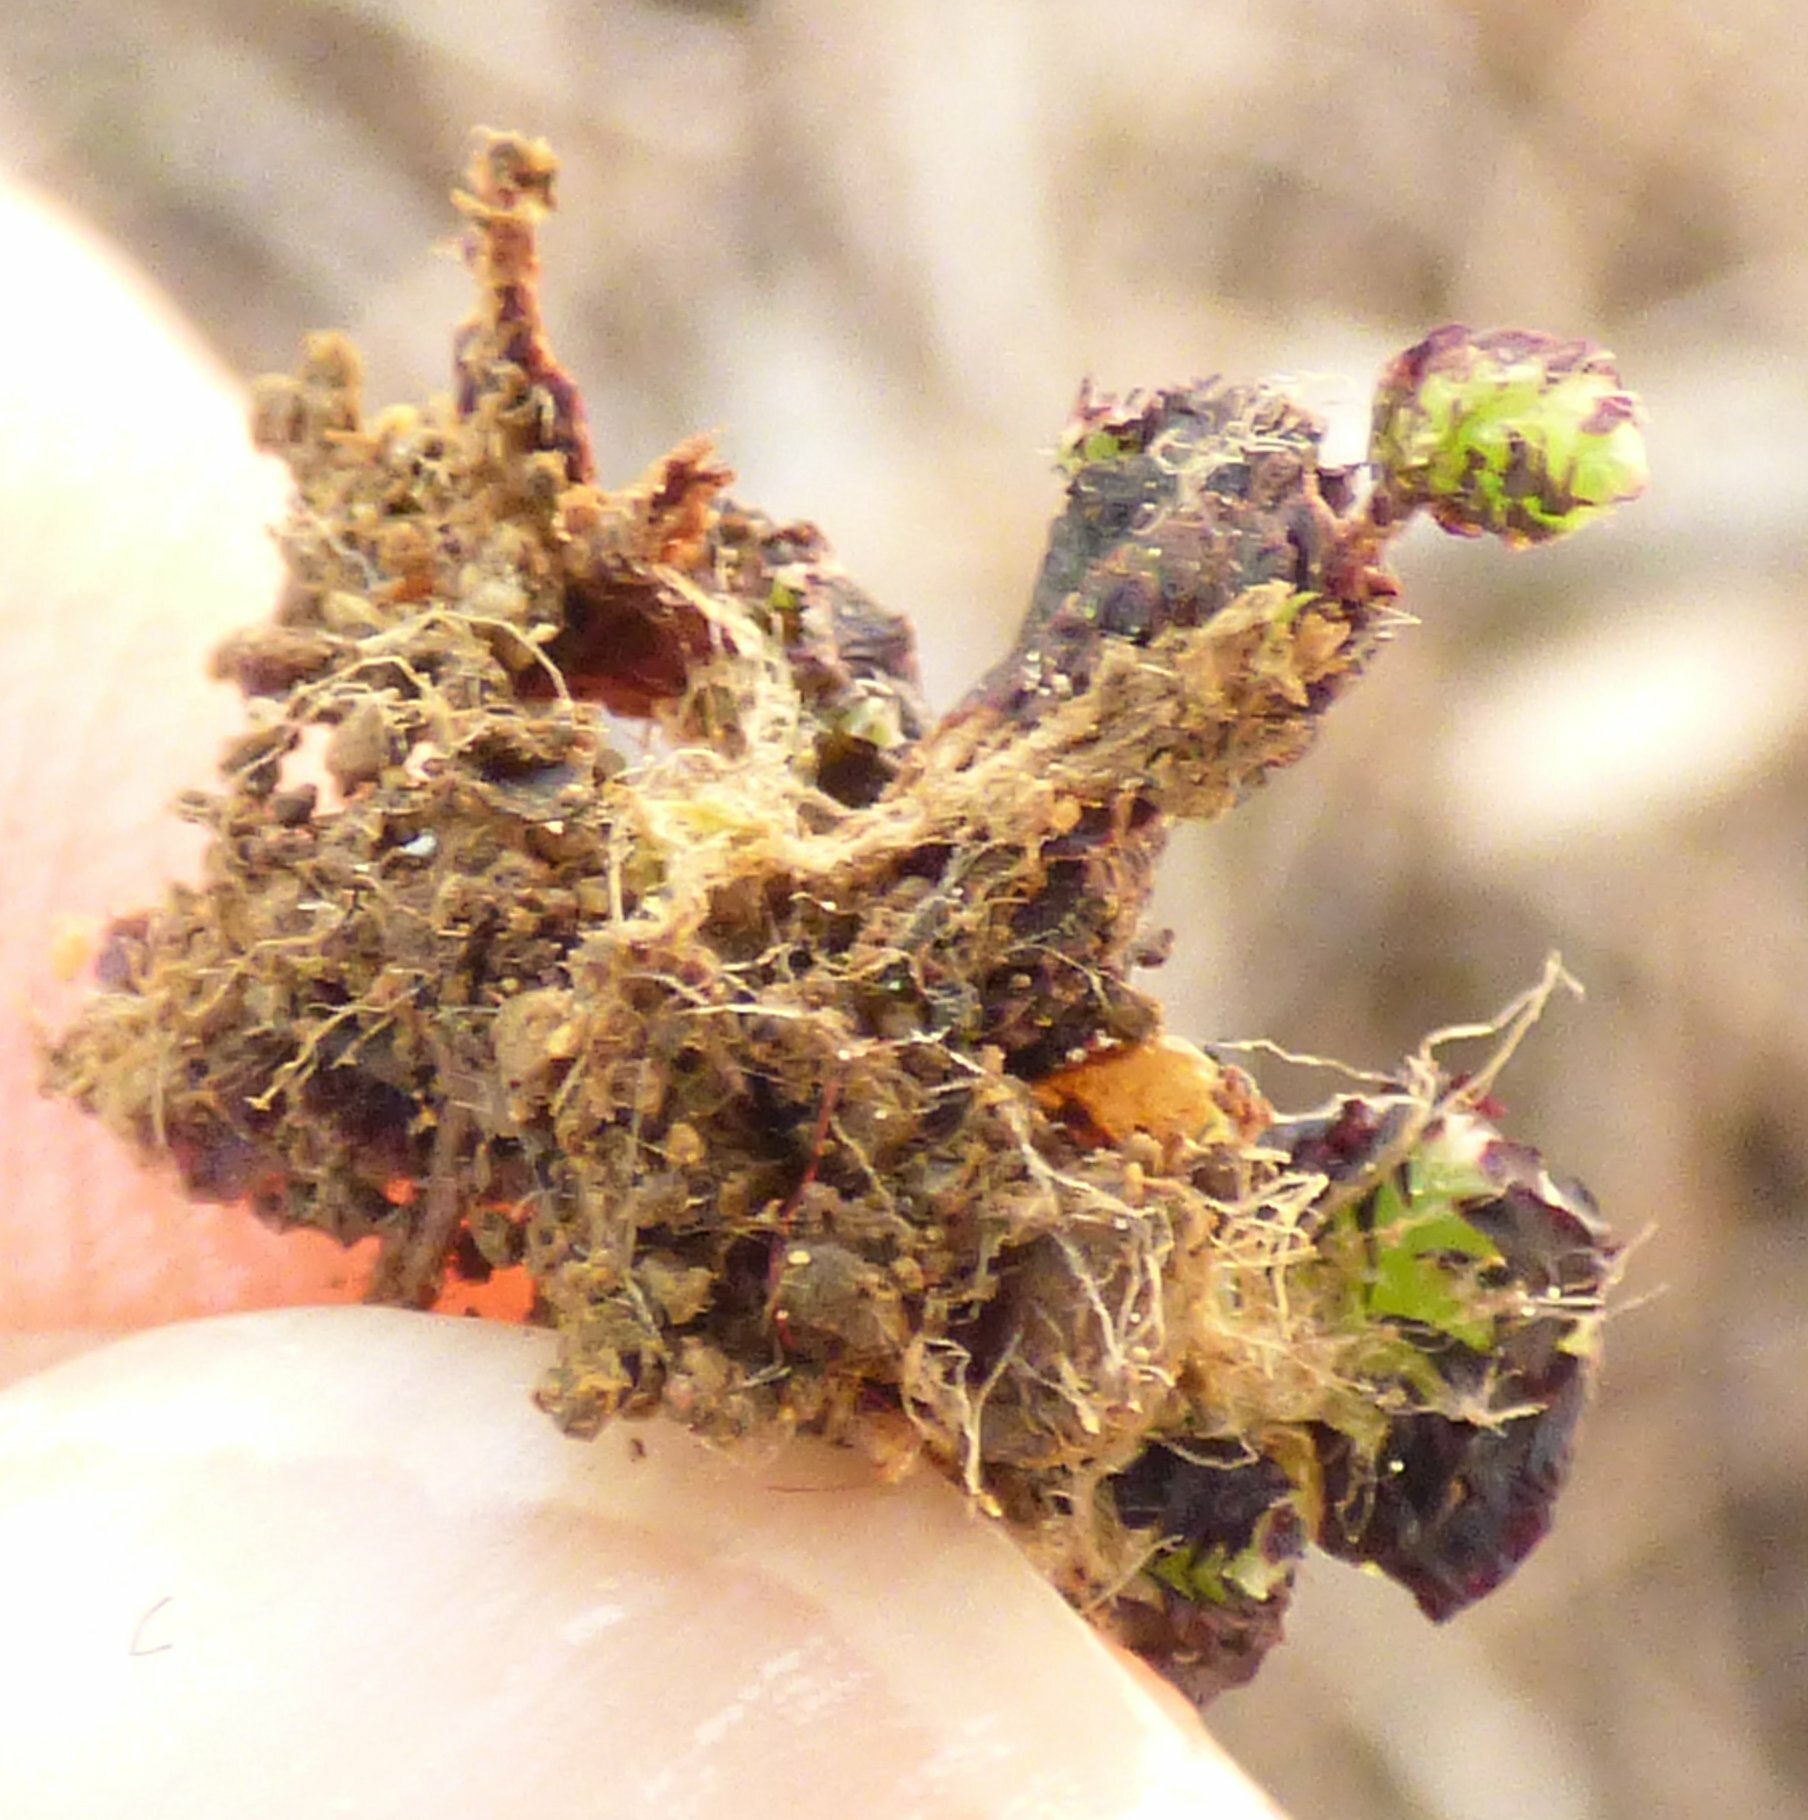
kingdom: Plantae
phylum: Marchantiophyta
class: Marchantiopsida
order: Marchantiales
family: Aytoniaceae
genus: Plagiochasma
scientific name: Plagiochasma rupestre
